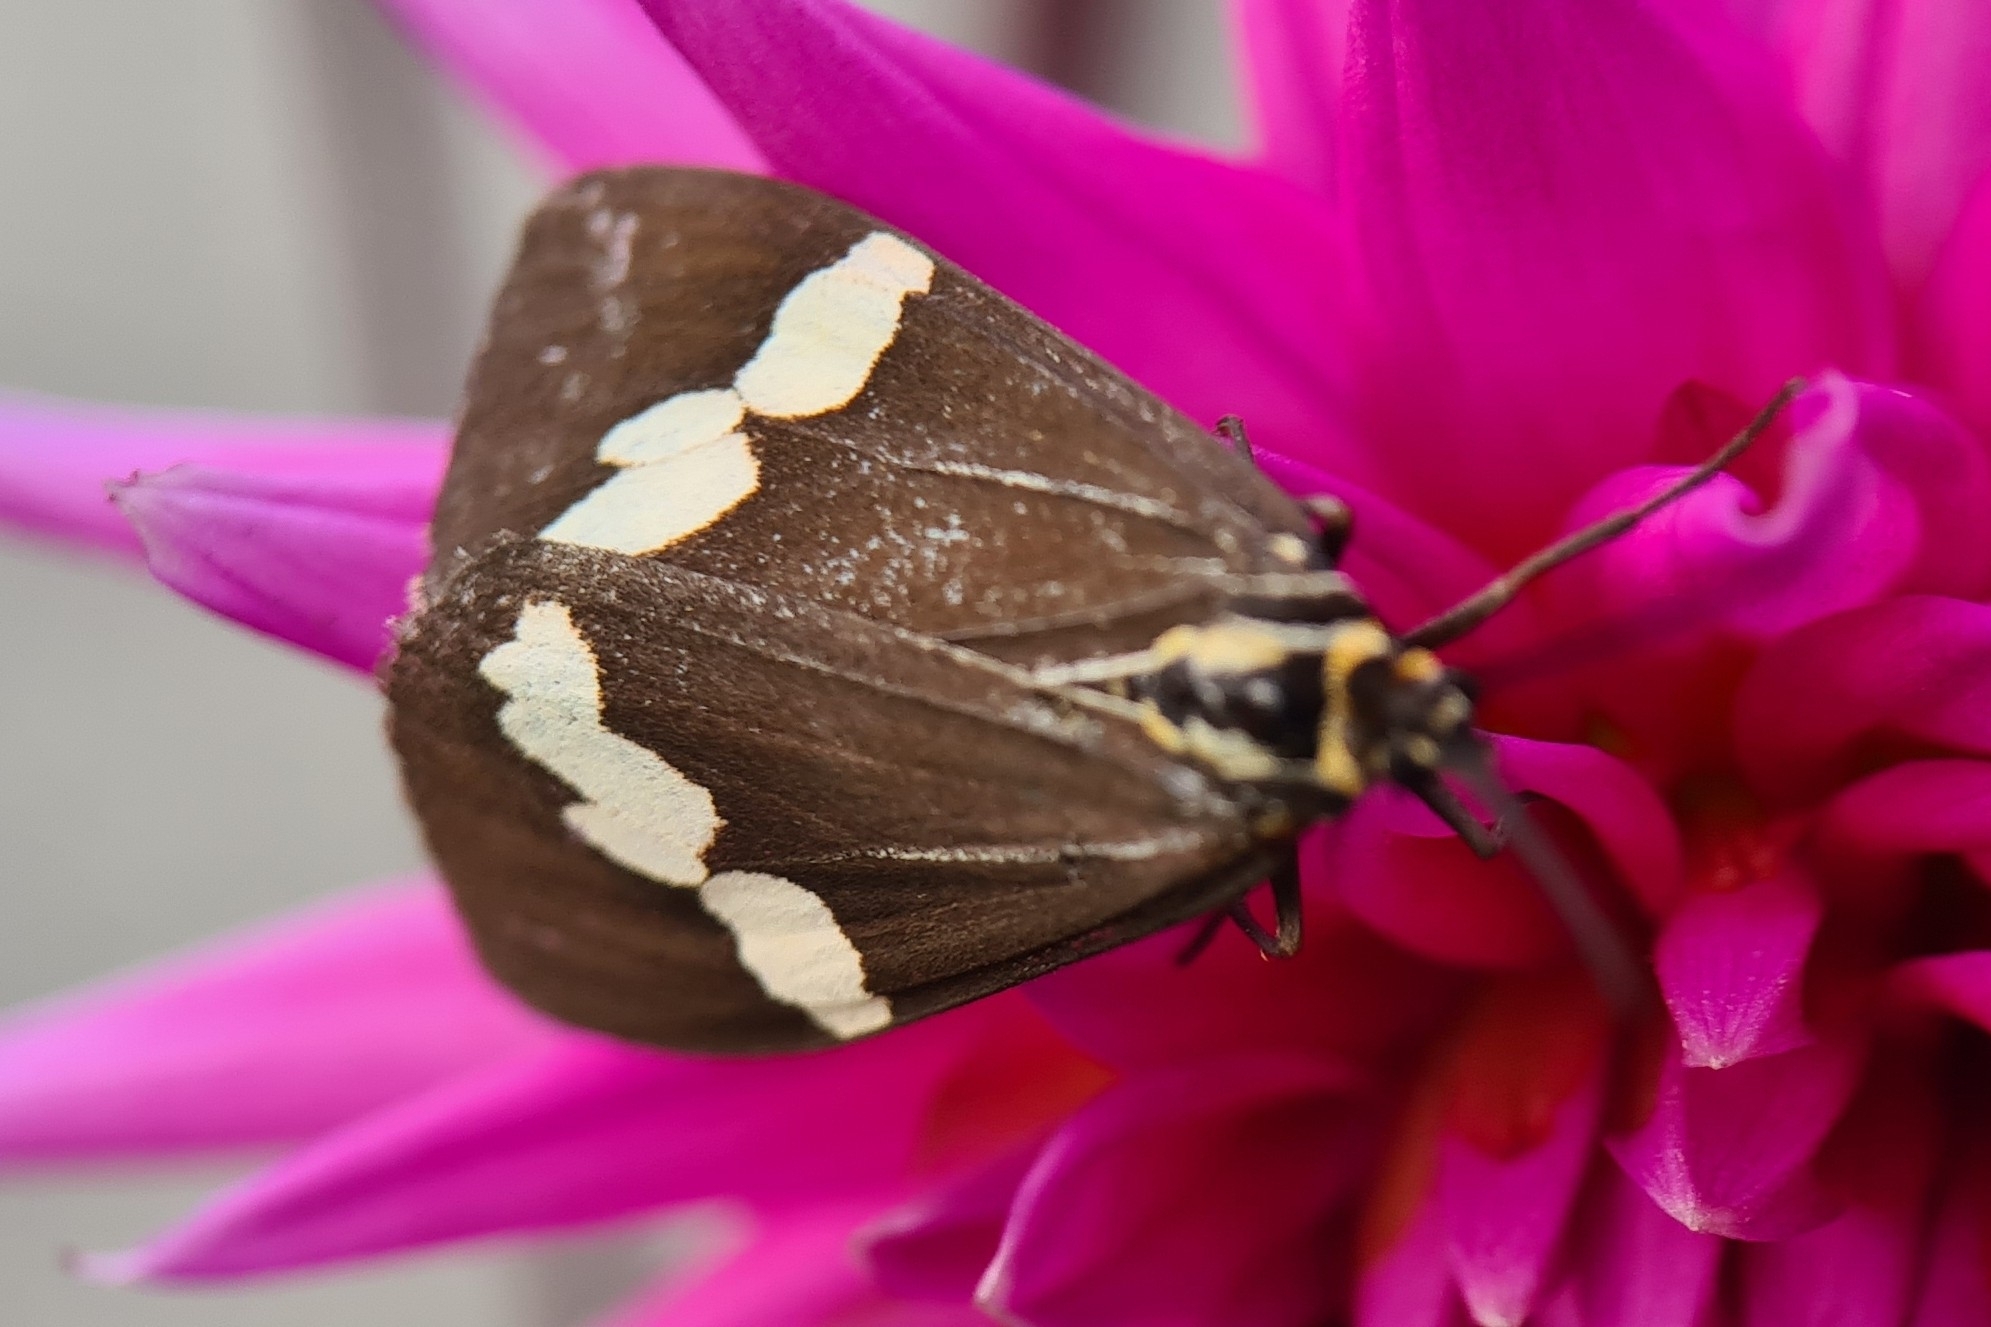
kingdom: Animalia
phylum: Arthropoda
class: Insecta
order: Lepidoptera
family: Erebidae
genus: Nyctemera
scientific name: Nyctemera amicus
